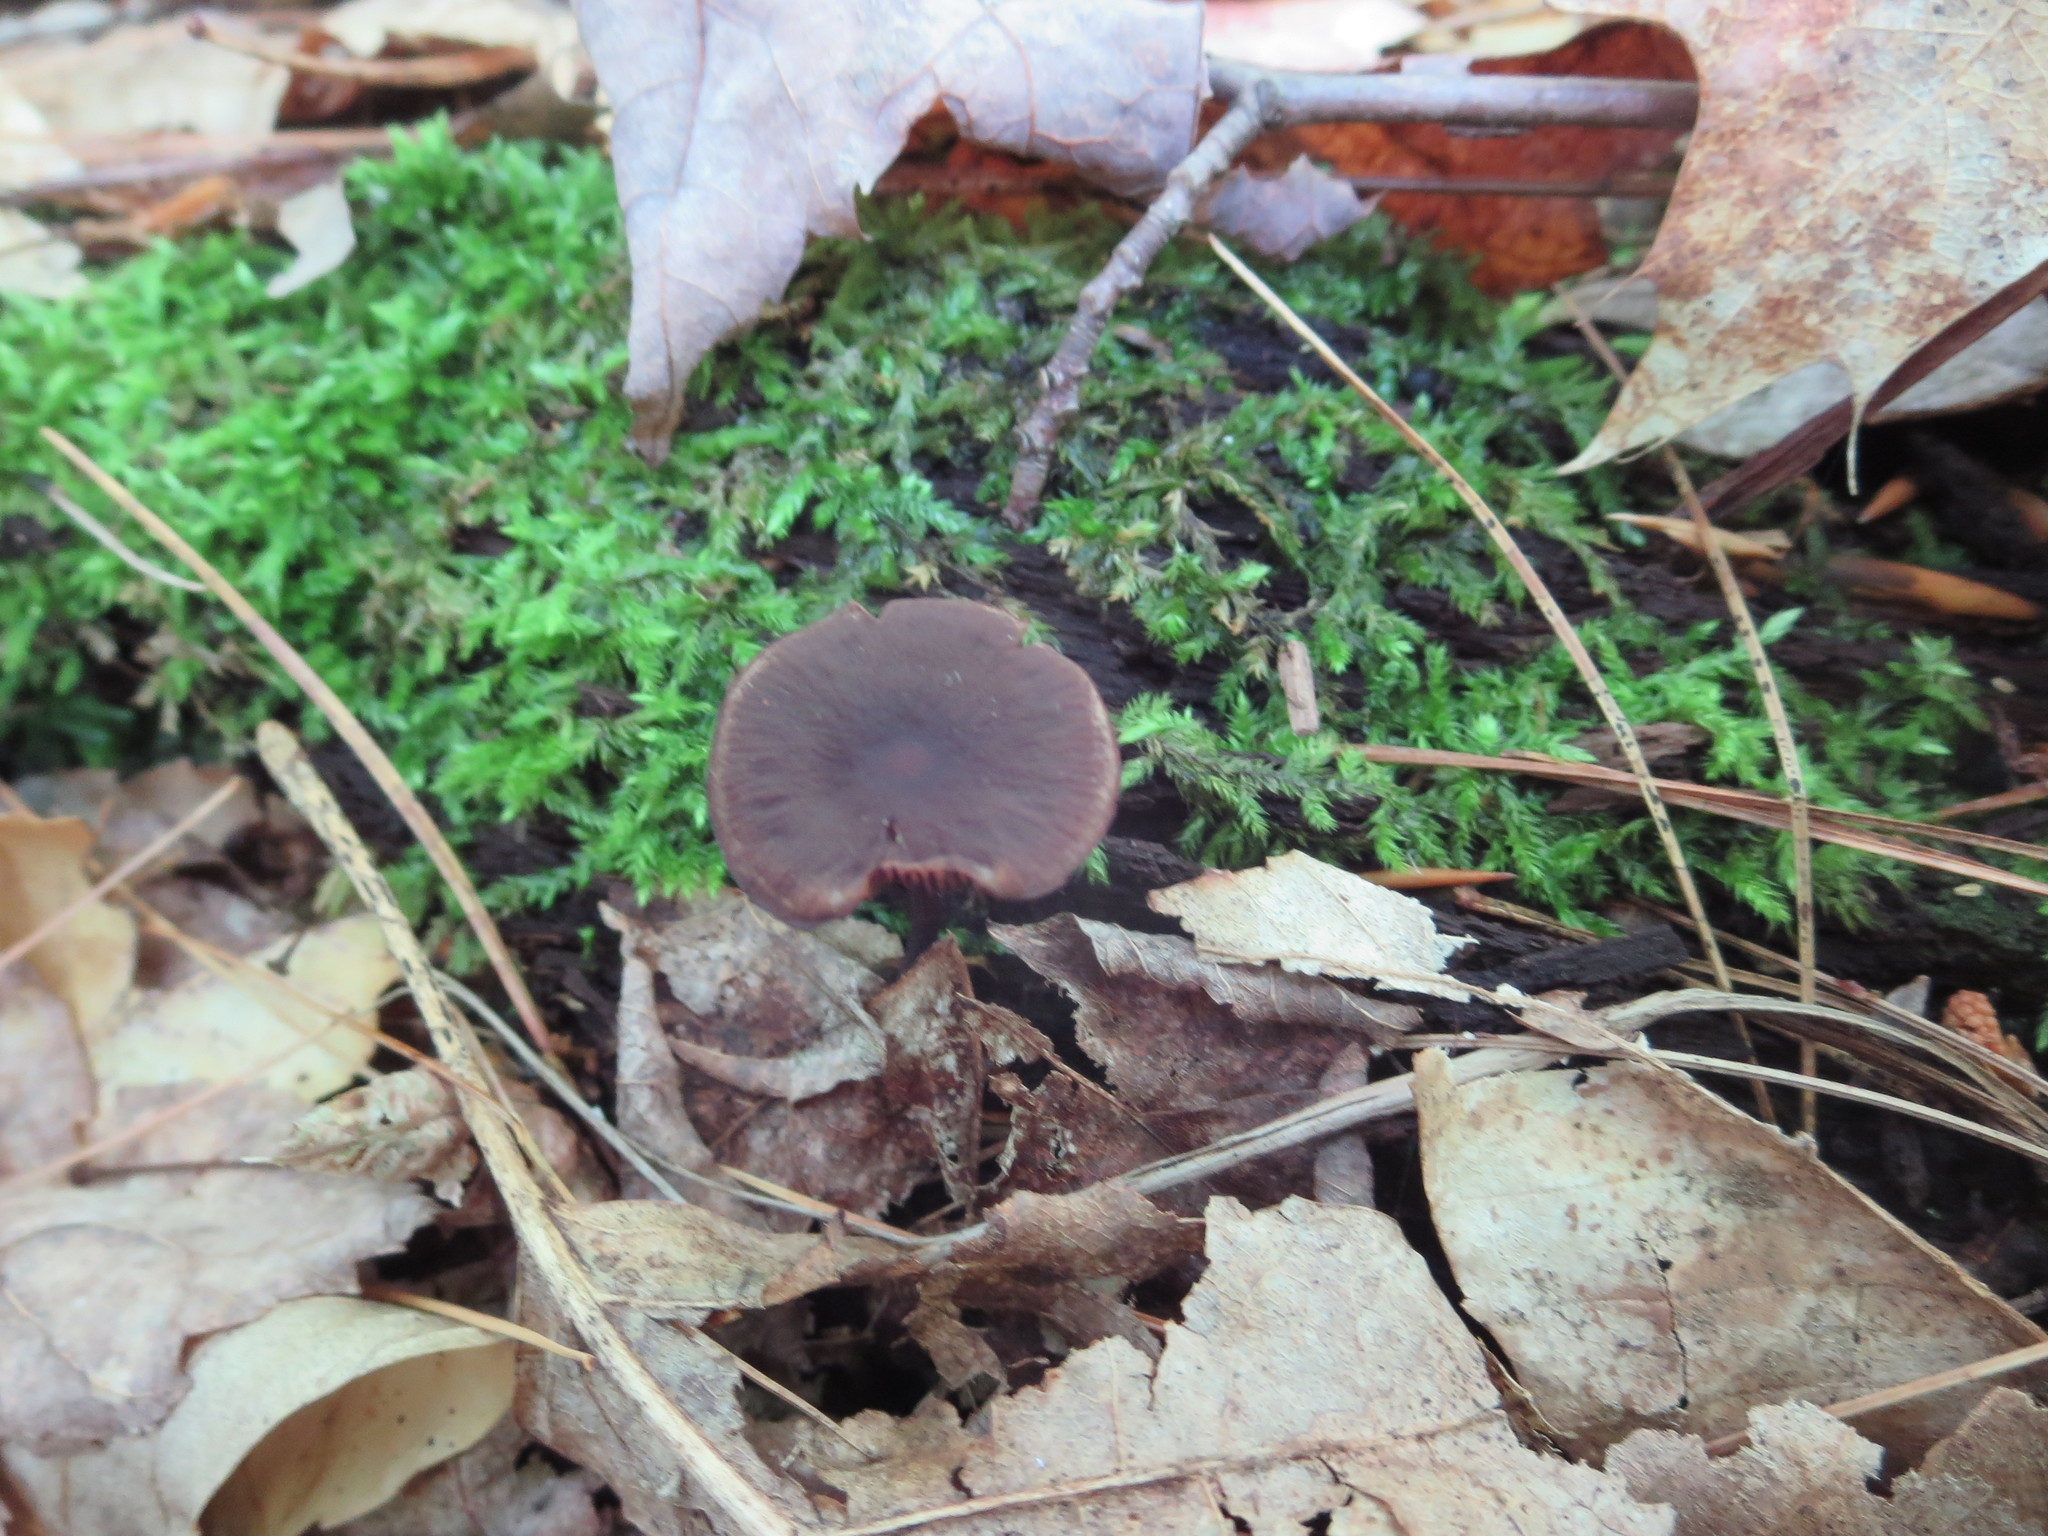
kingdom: Fungi
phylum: Basidiomycota
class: Agaricomycetes
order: Agaricales
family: Omphalotaceae
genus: Gymnopus
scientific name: Gymnopus alkalivirens
